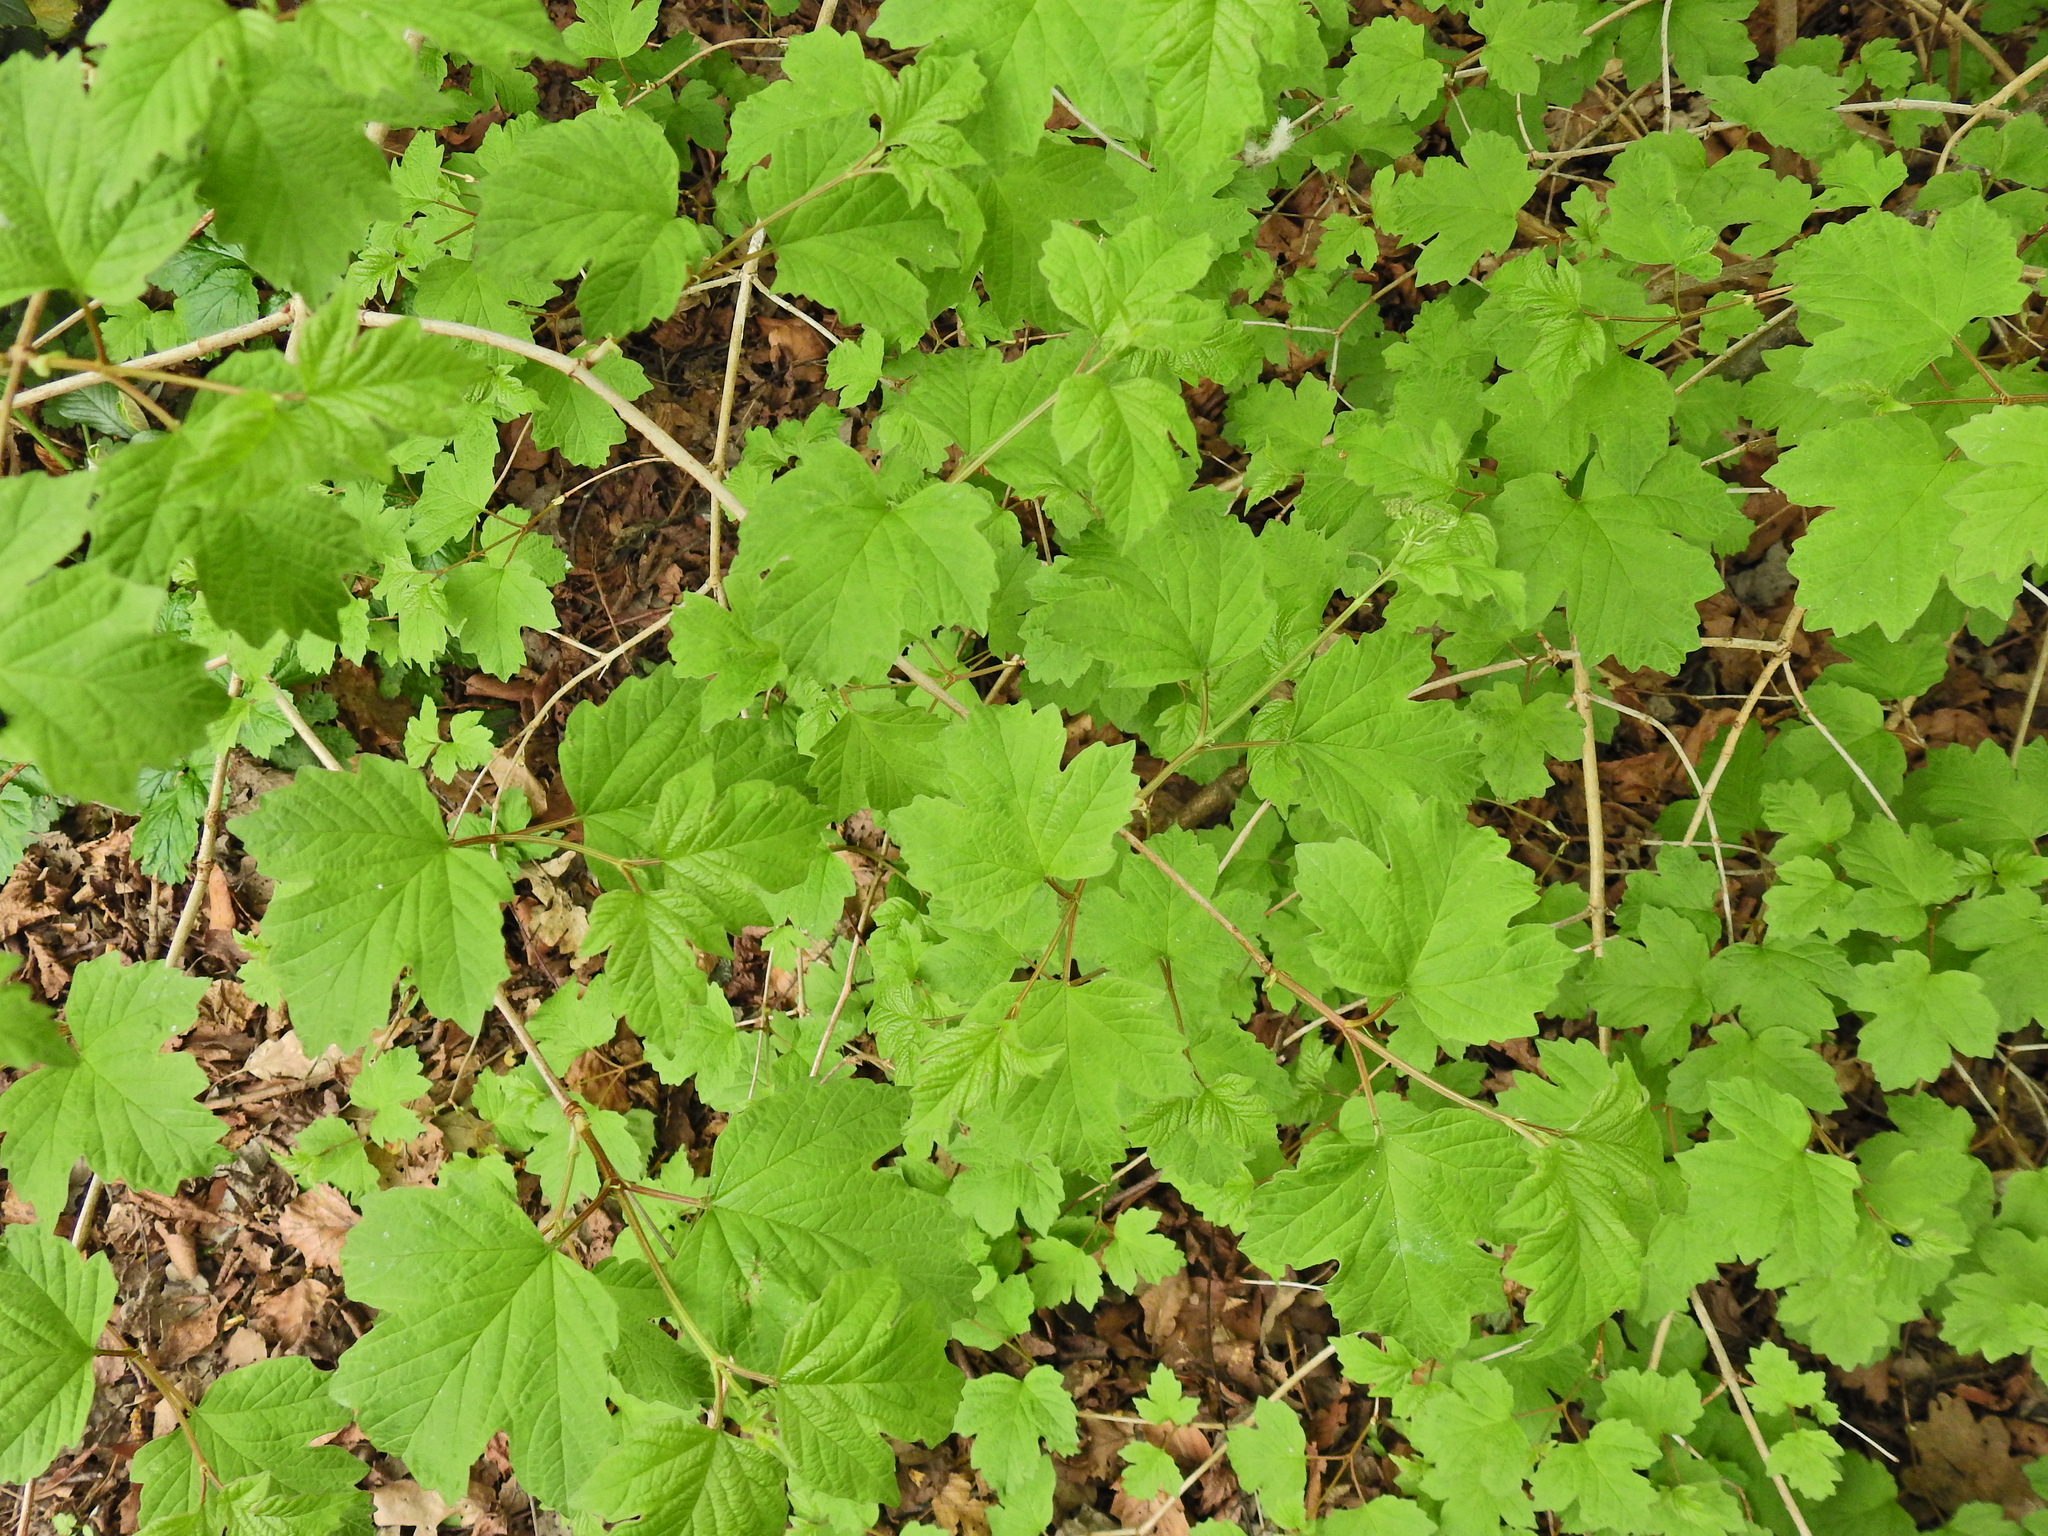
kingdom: Plantae
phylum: Tracheophyta
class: Magnoliopsida
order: Dipsacales
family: Viburnaceae
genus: Viburnum
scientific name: Viburnum opulus
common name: Guelder-rose
